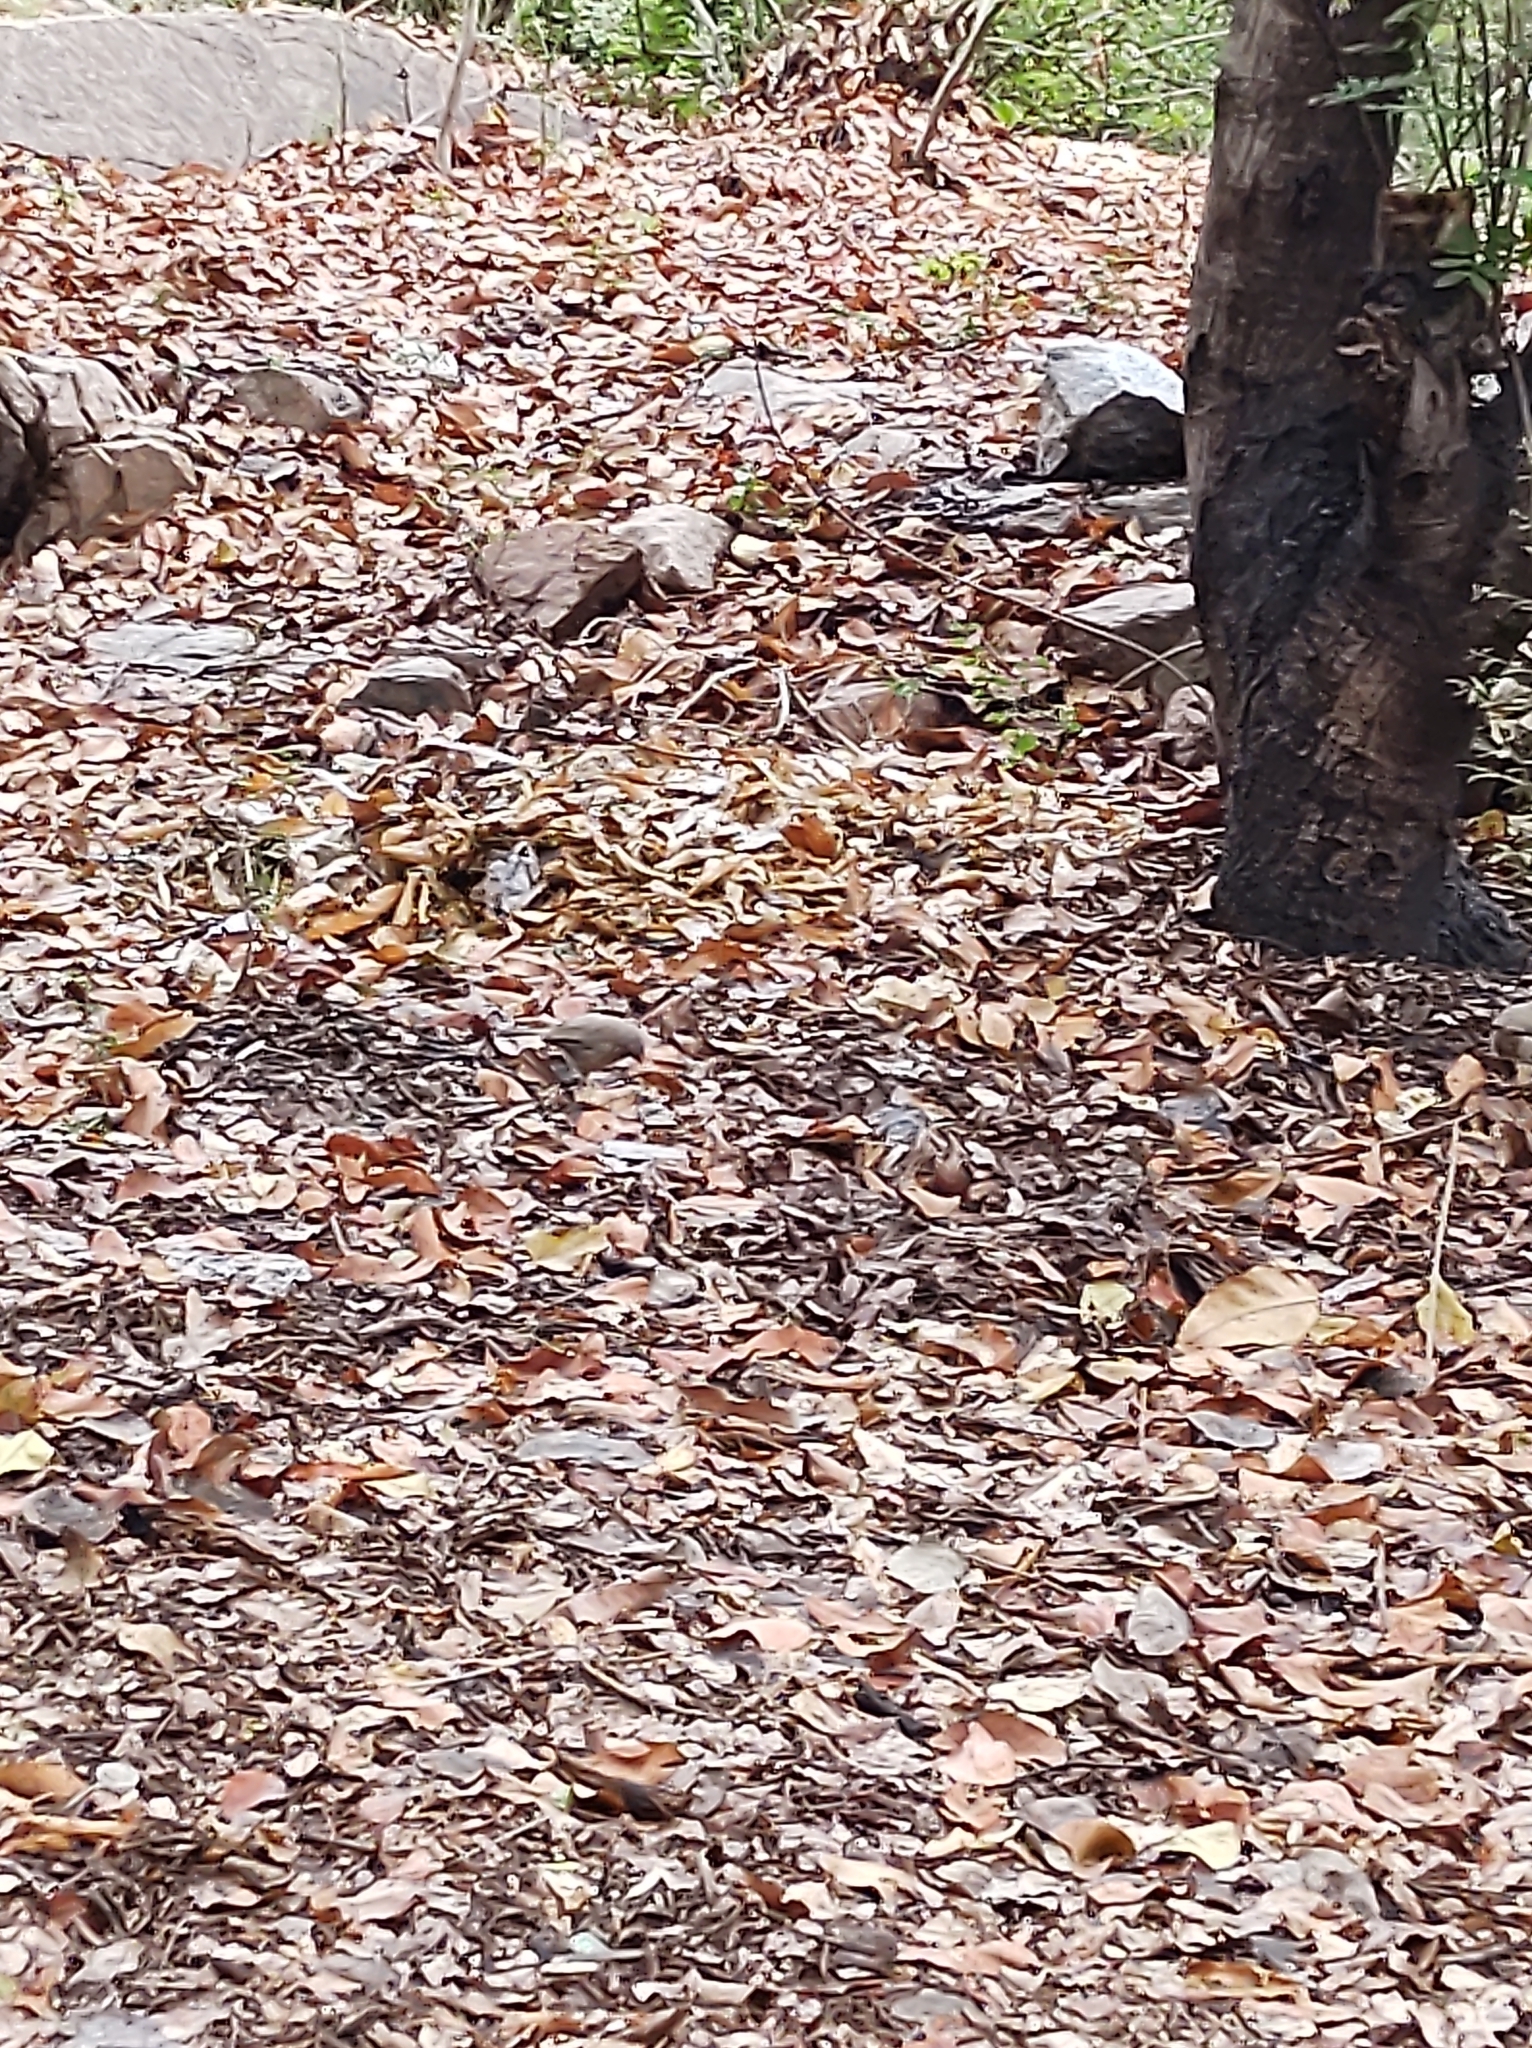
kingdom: Animalia
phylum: Chordata
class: Aves
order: Passeriformes
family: Leiothrichidae
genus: Turdoides
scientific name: Turdoides striata
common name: Jungle babbler
